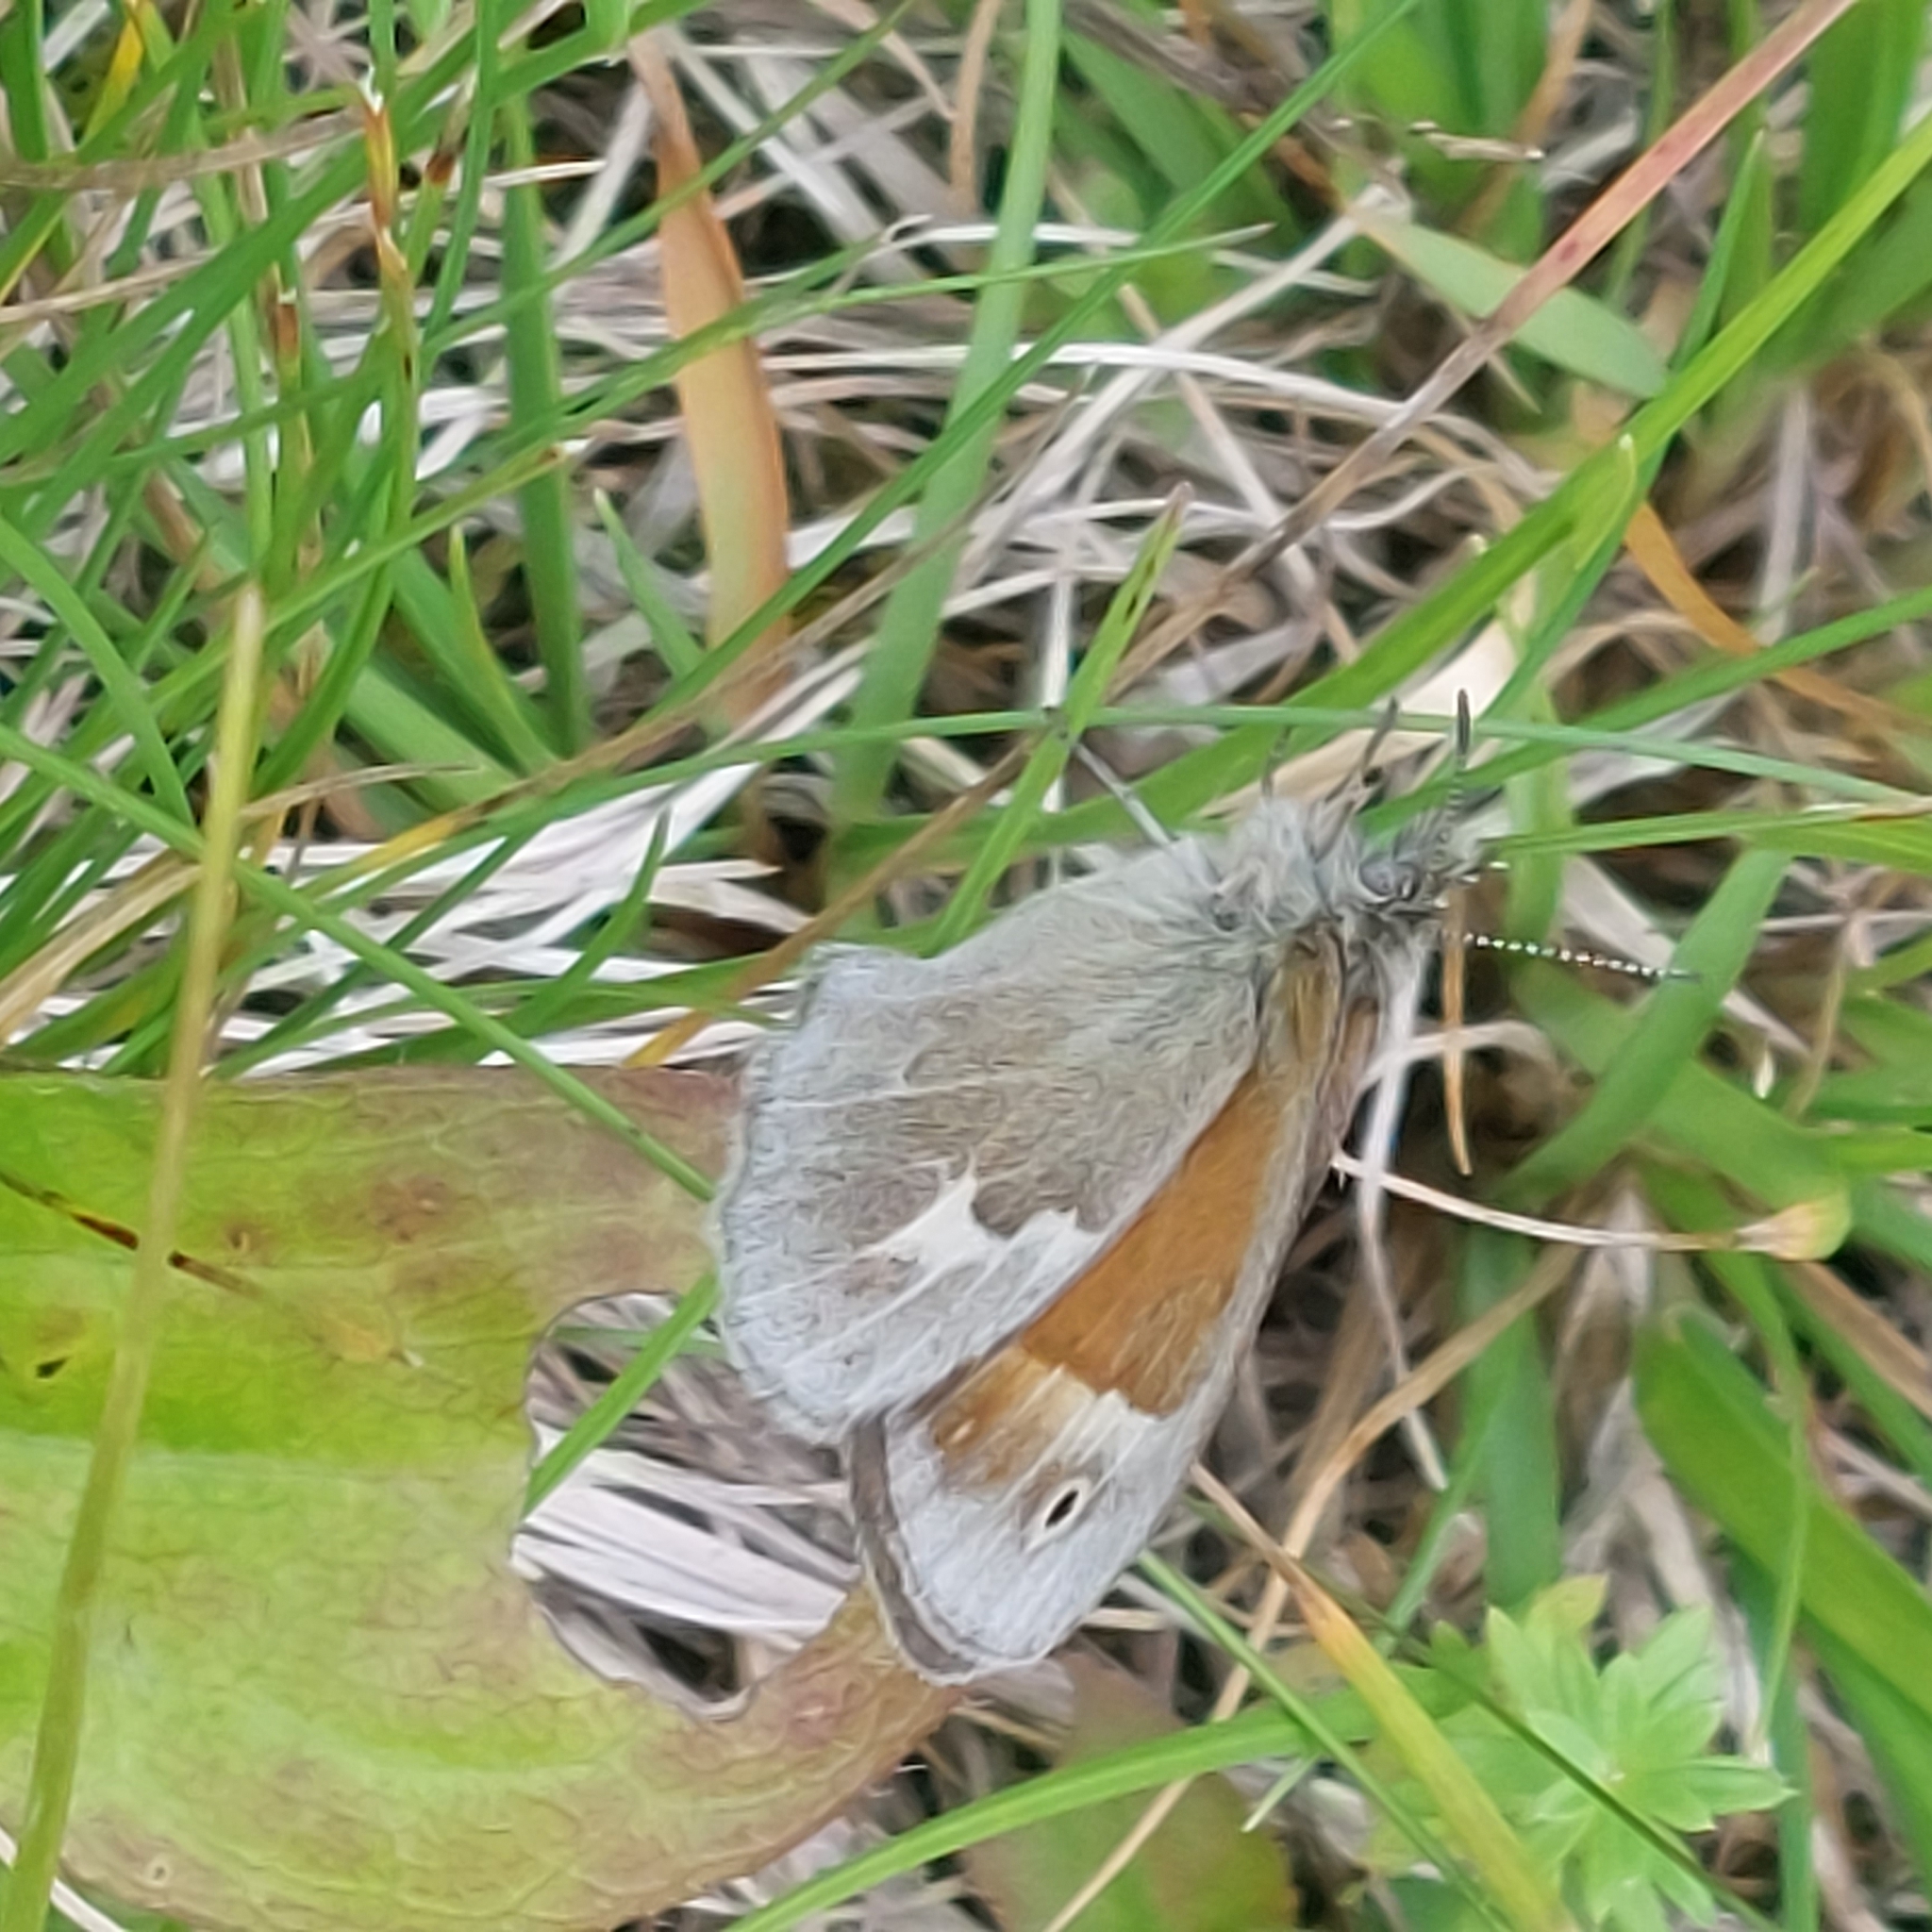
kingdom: Animalia
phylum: Arthropoda
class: Insecta
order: Lepidoptera
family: Nymphalidae
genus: Coenonympha
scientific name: Coenonympha california
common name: Common ringlet
